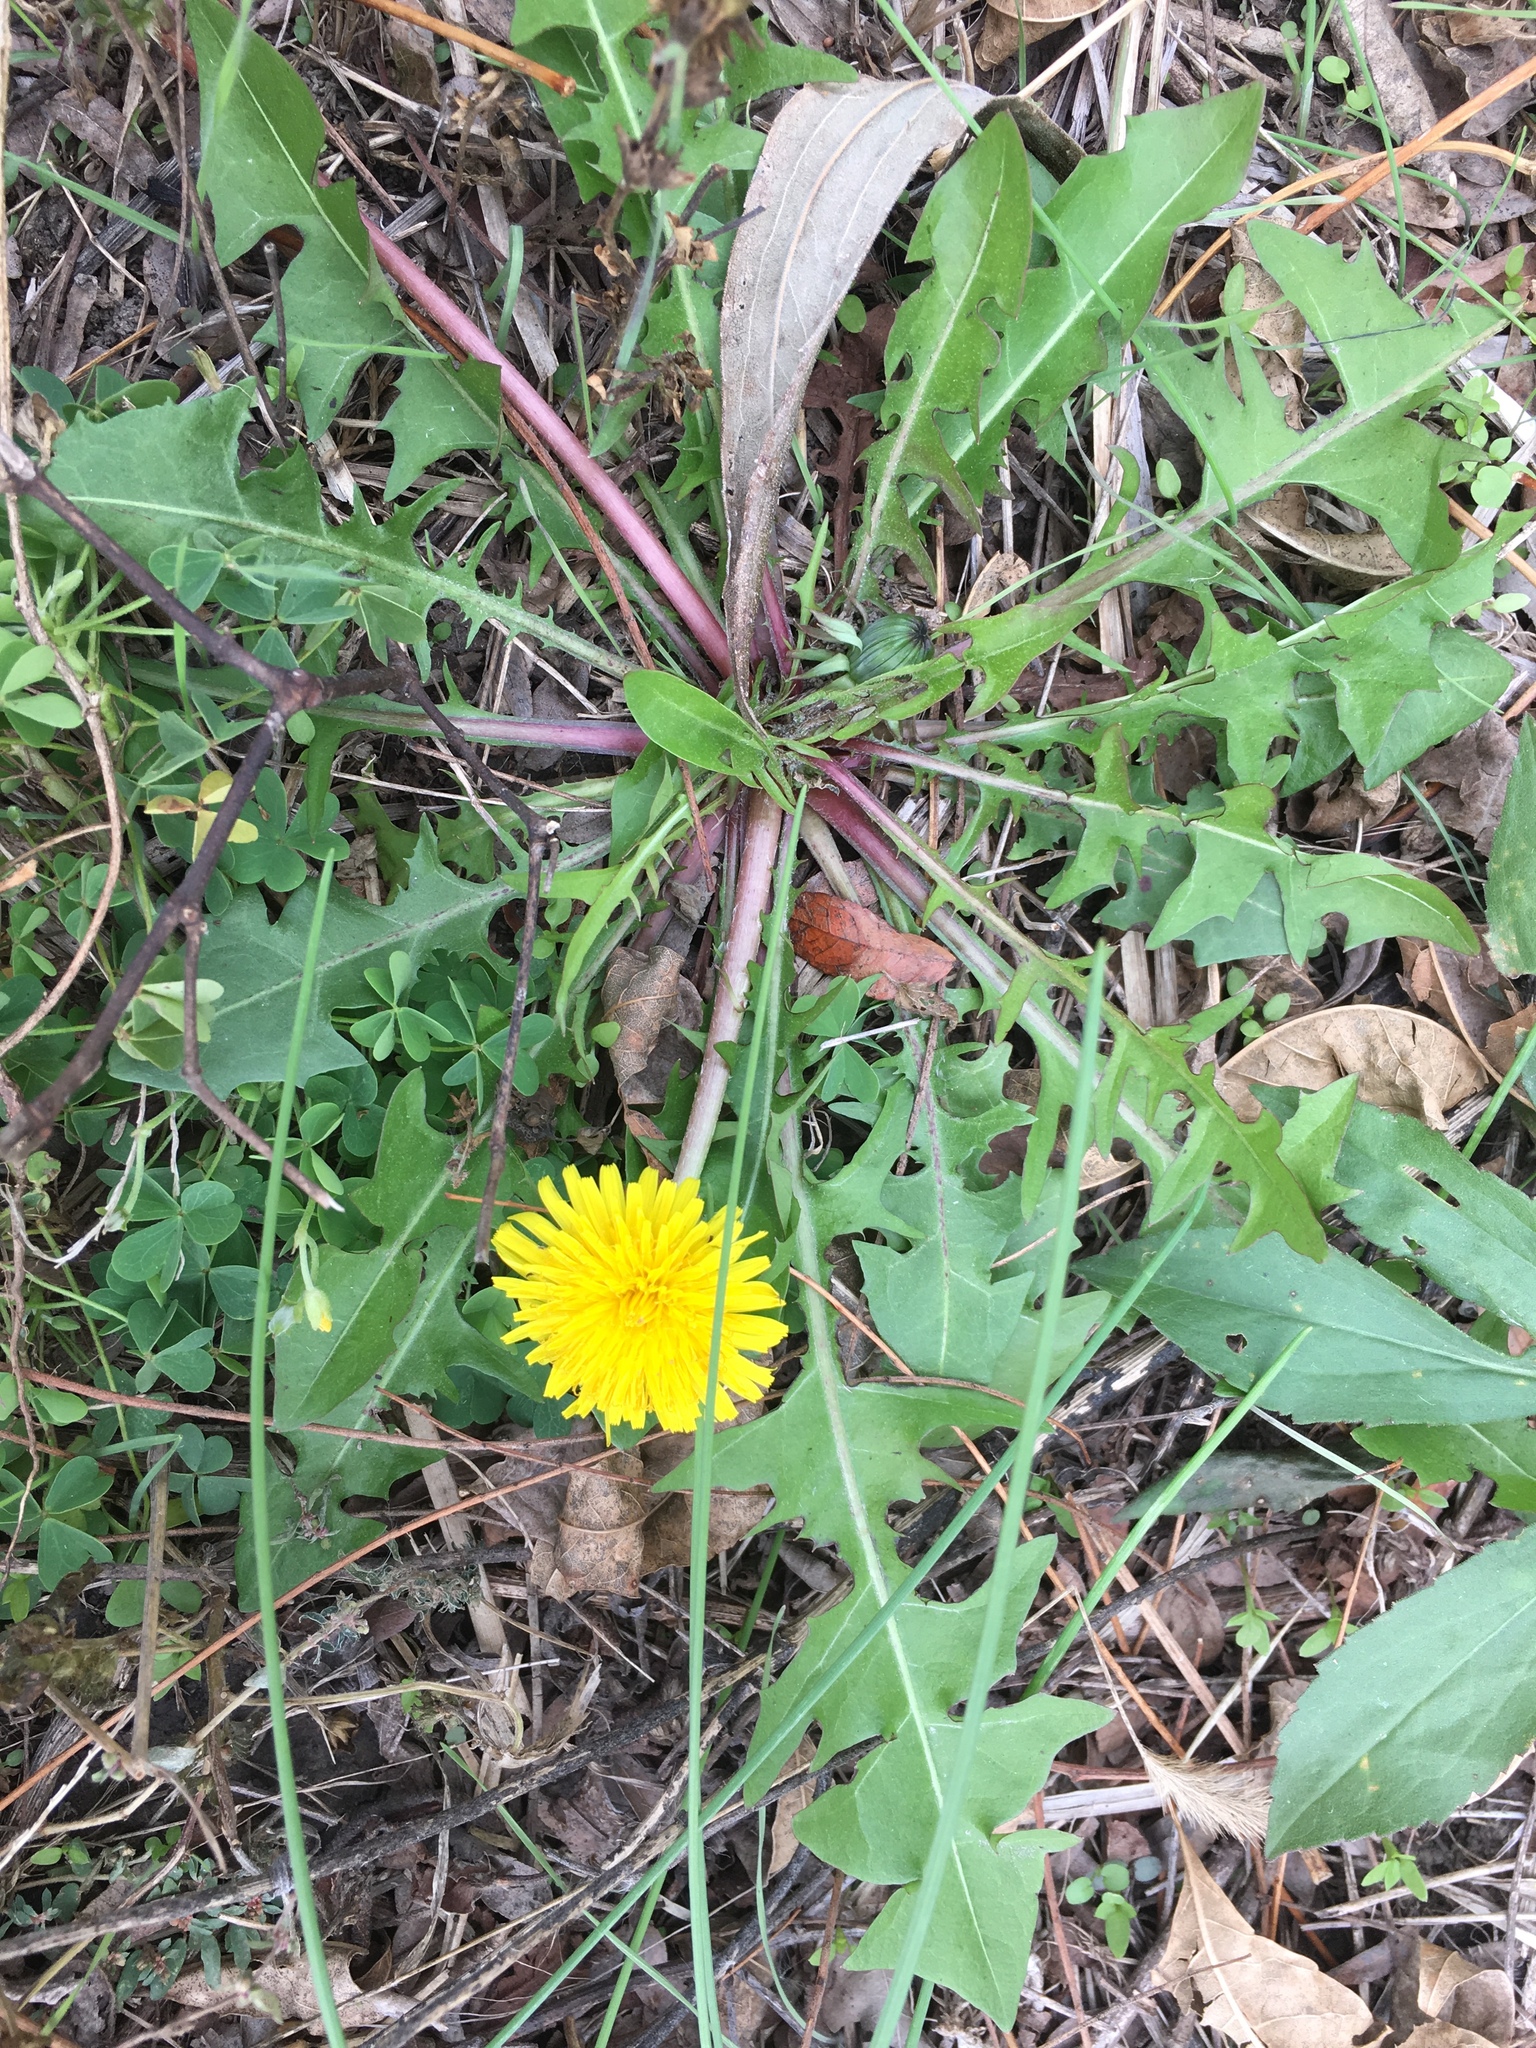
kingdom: Plantae
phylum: Tracheophyta
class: Magnoliopsida
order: Asterales
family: Asteraceae
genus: Taraxacum
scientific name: Taraxacum officinale
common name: Common dandelion
